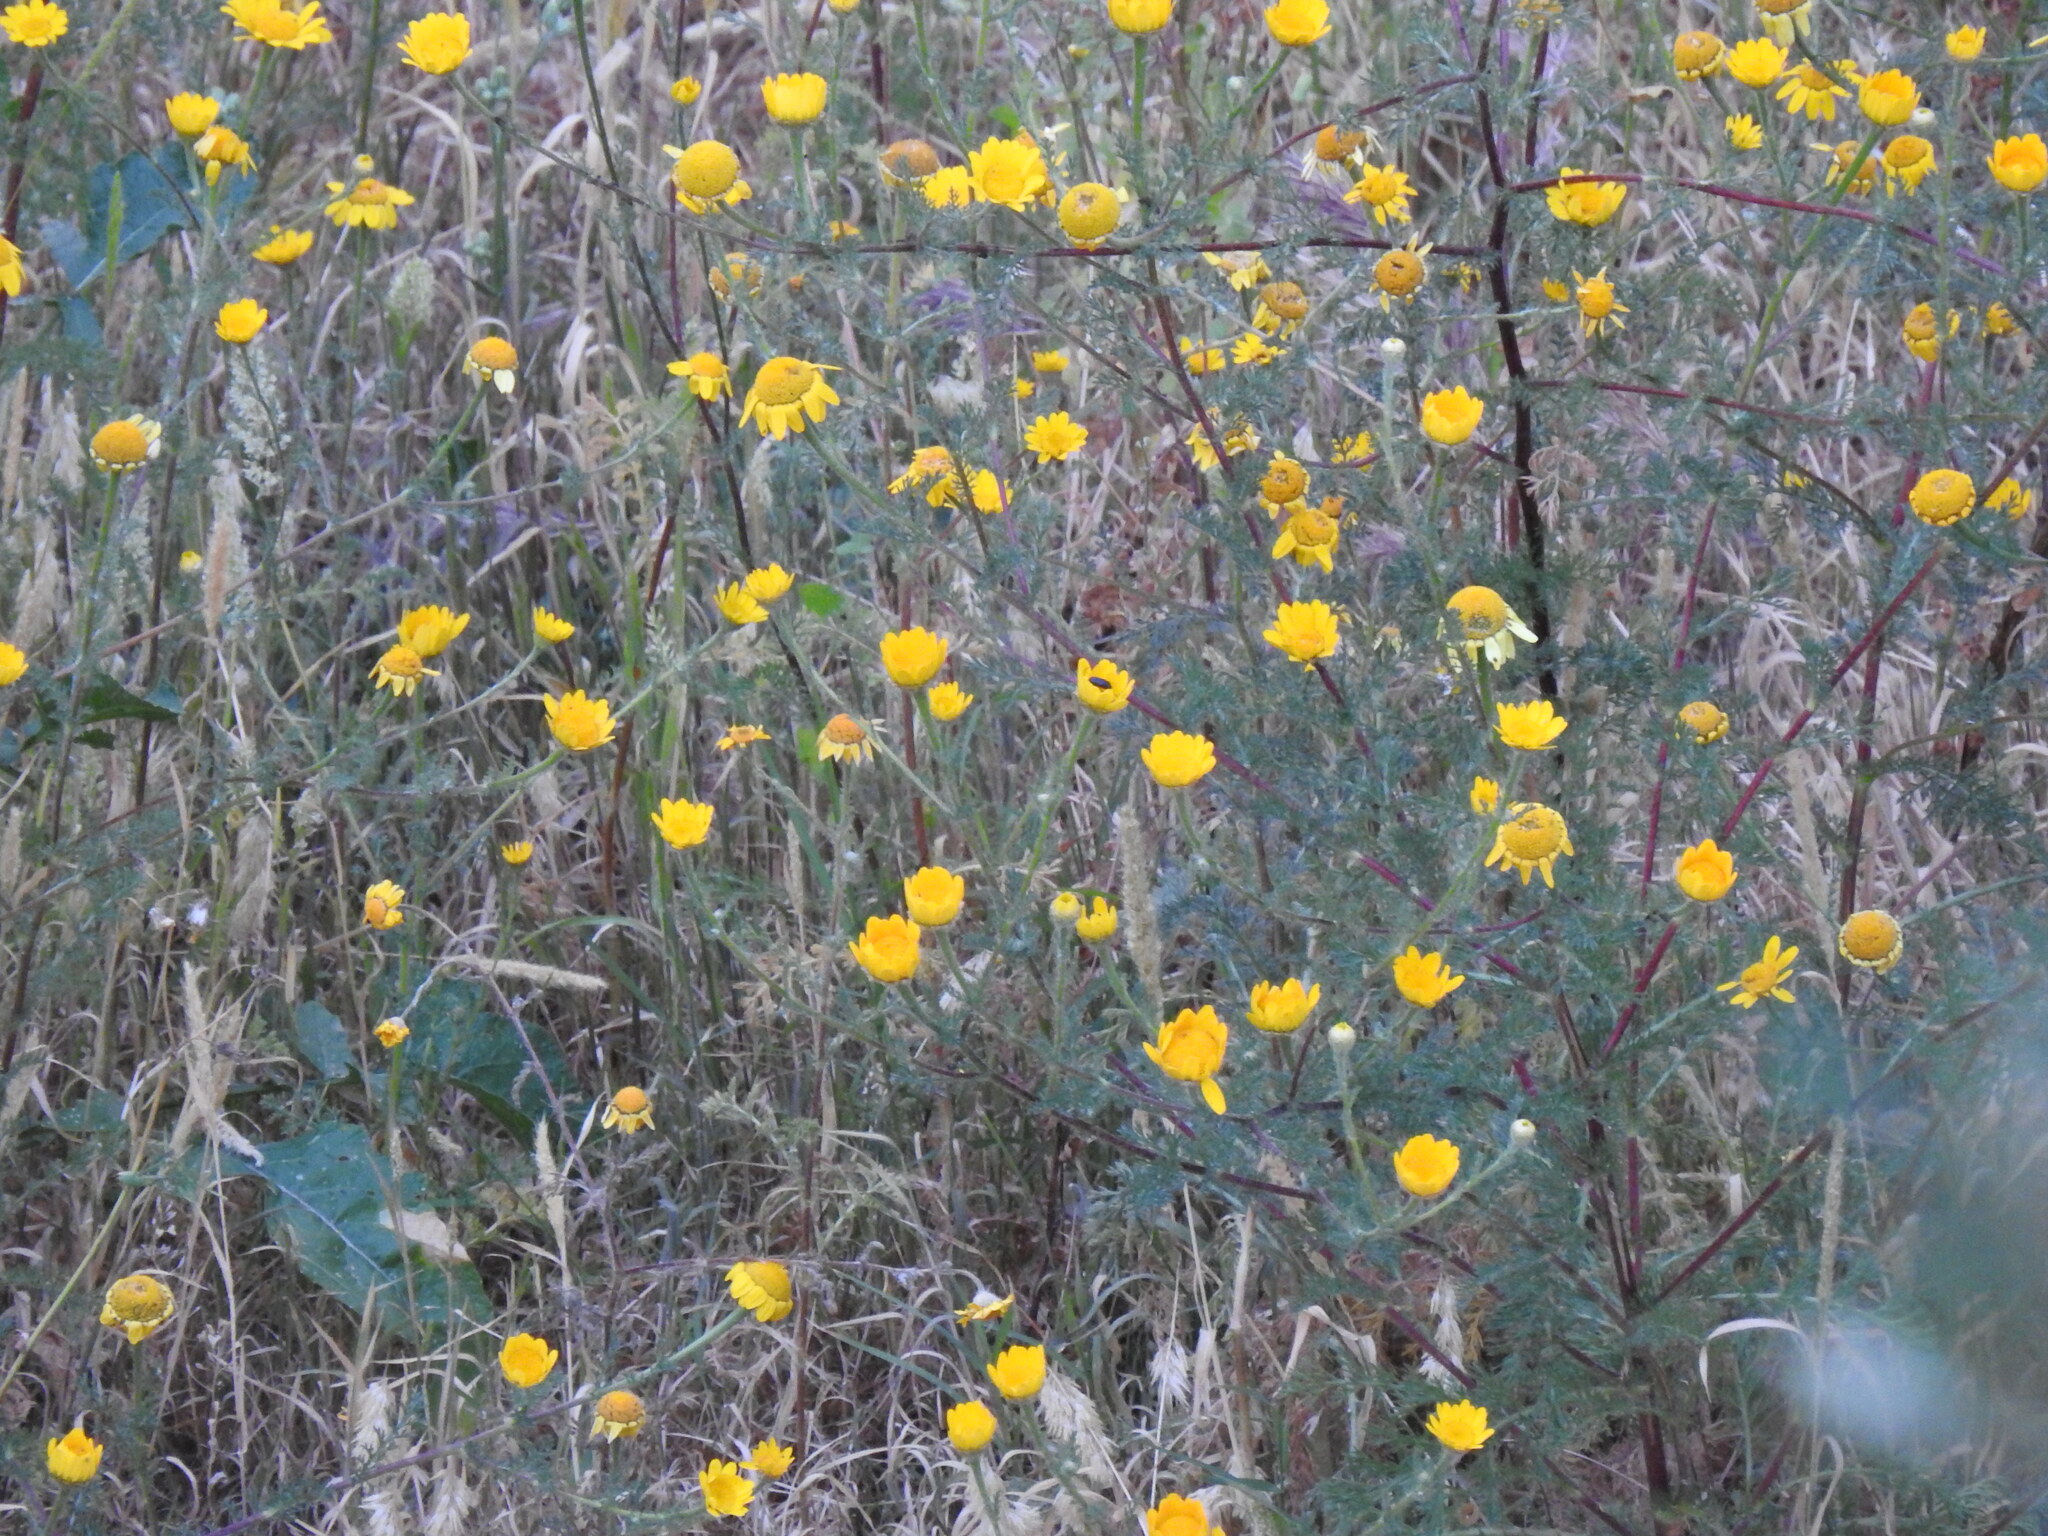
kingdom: Plantae
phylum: Tracheophyta
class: Magnoliopsida
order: Asterales
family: Asteraceae
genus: Anacyclus
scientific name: Anacyclus radiatus
